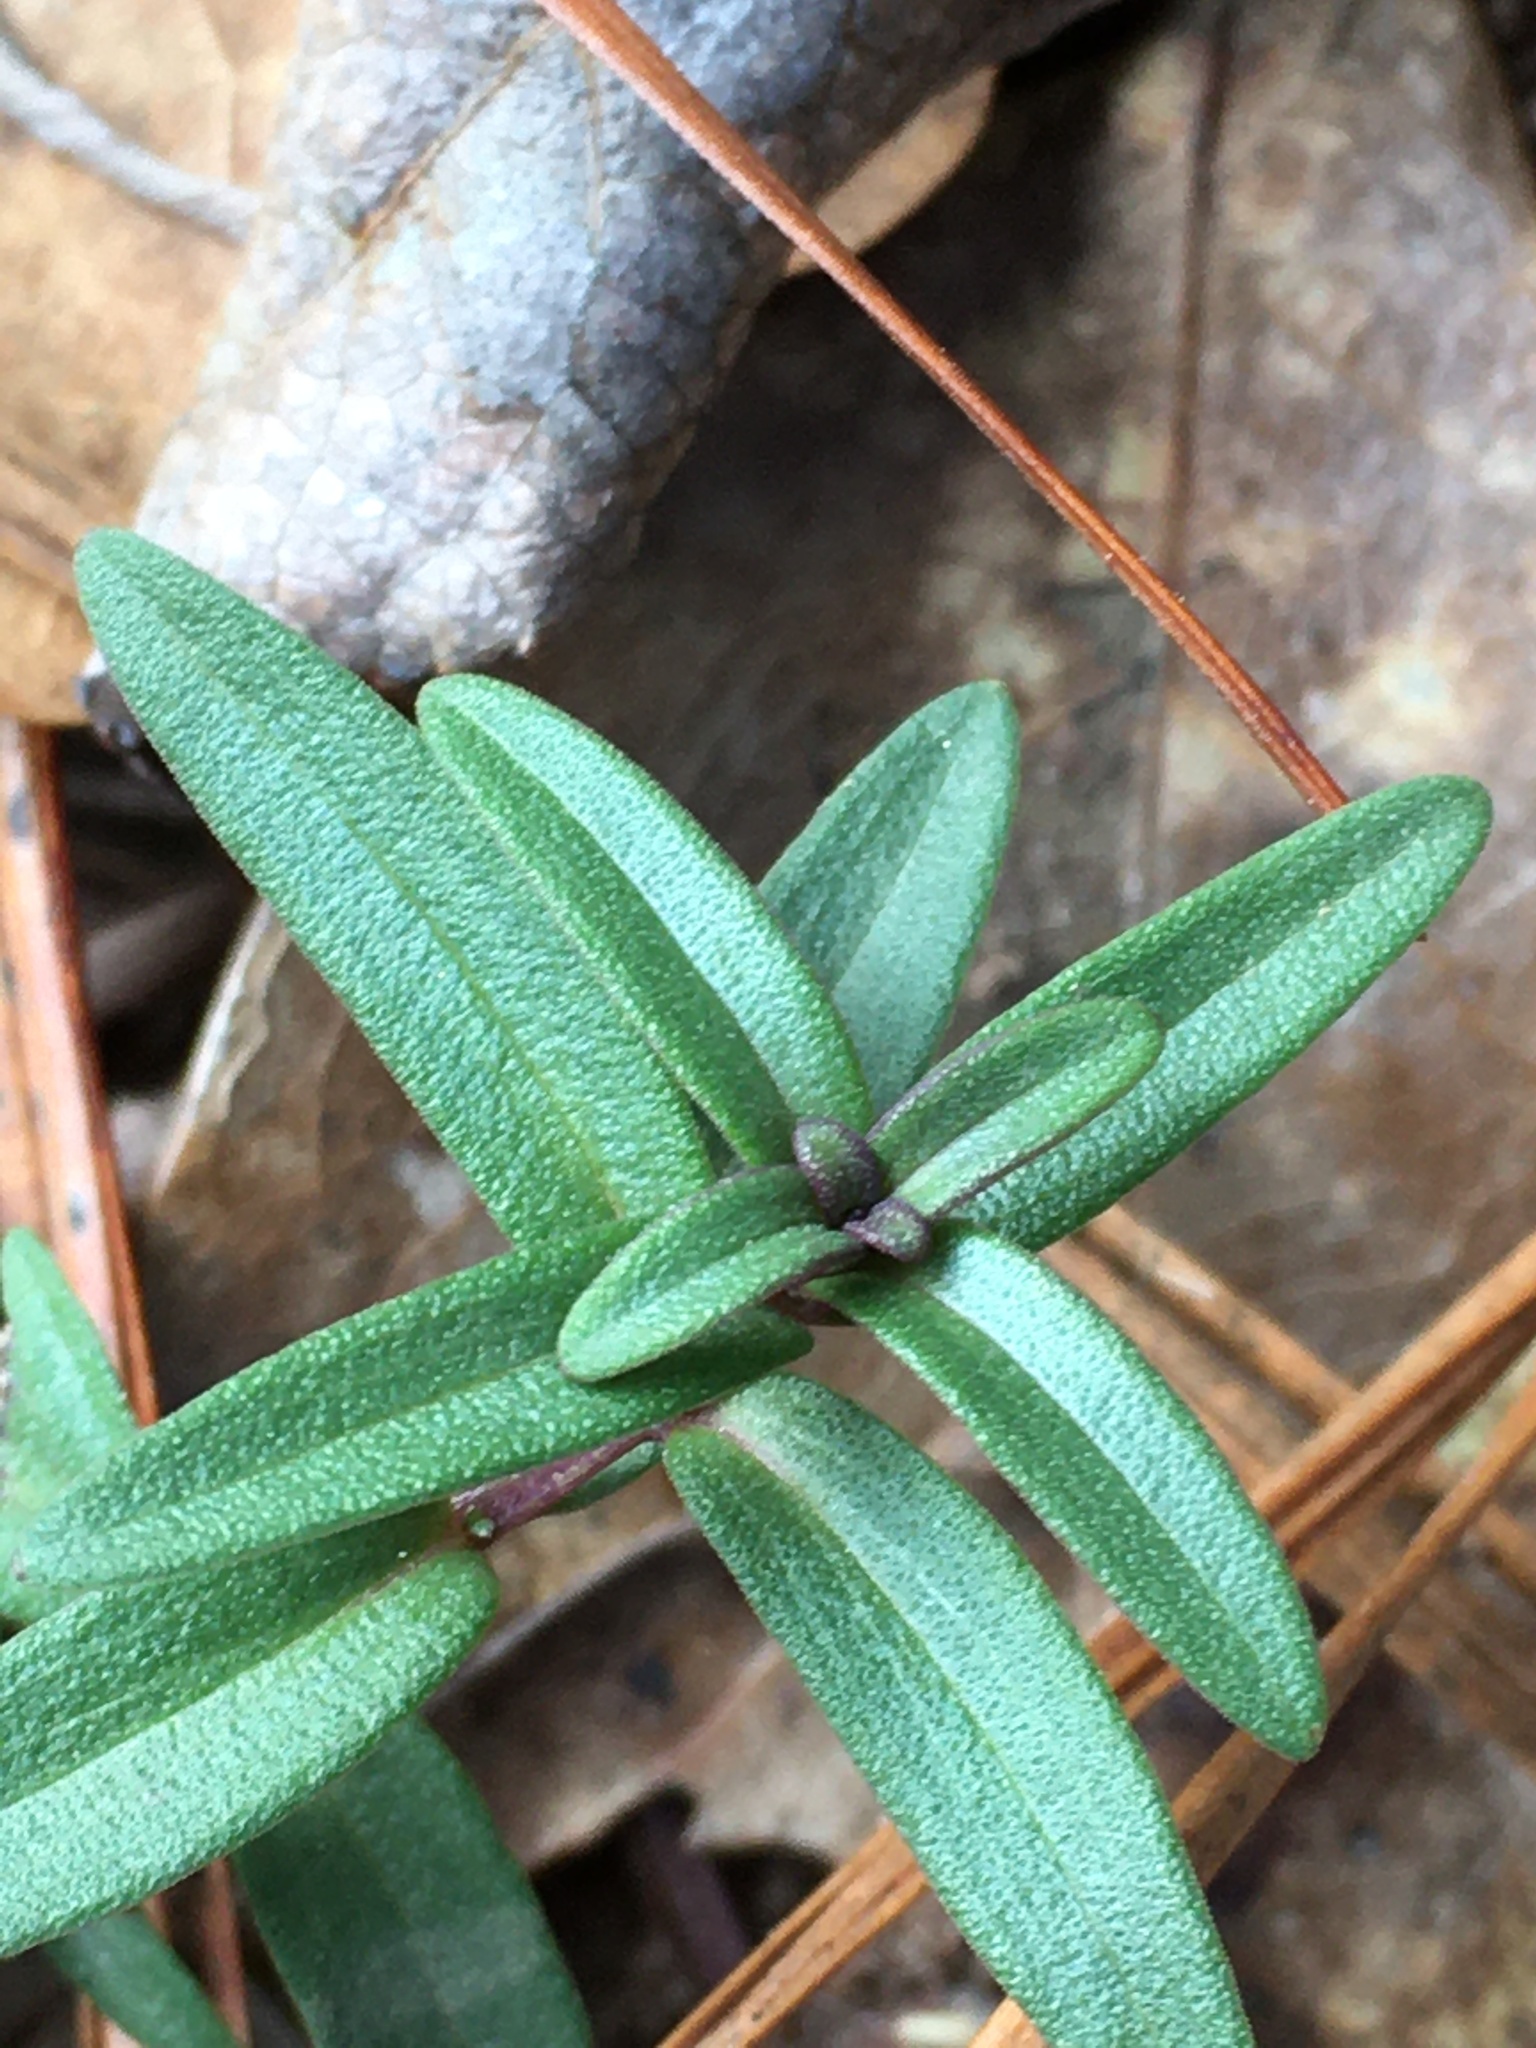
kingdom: Plantae
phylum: Tracheophyta
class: Magnoliopsida
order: Lamiales
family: Lamiaceae
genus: Pycnanthemum
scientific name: Pycnanthemum tenuifolium
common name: Narrow-leaf mountain-mint
